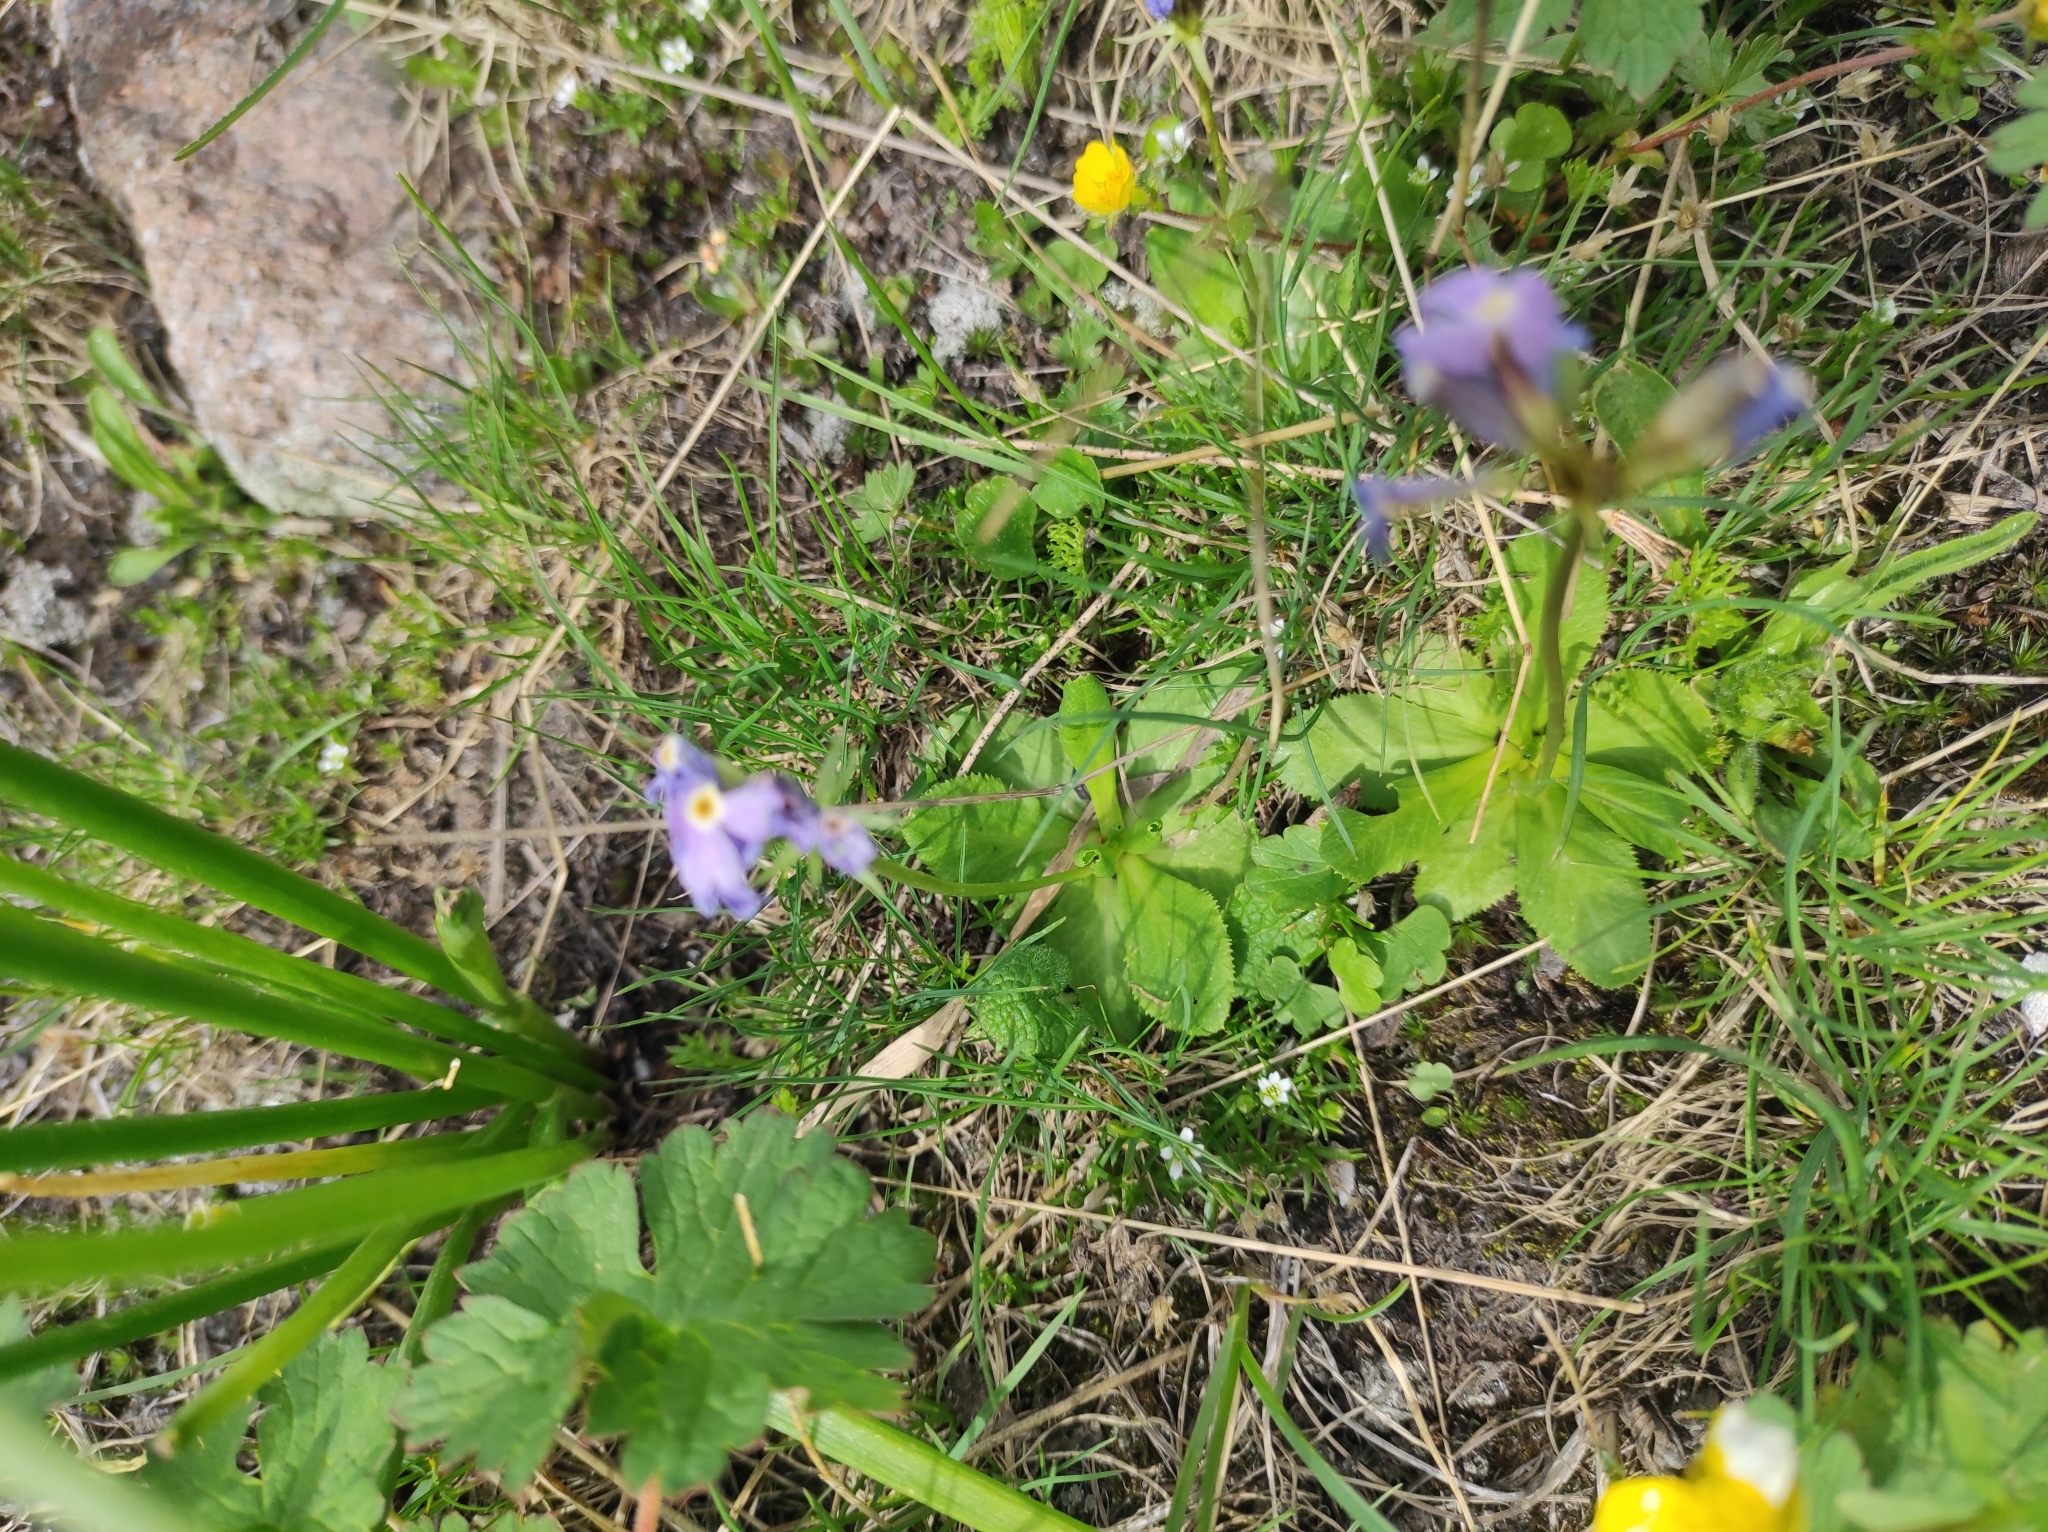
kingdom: Plantae
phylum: Tracheophyta
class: Magnoliopsida
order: Ericales
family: Primulaceae
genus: Primula
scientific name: Primula algida
